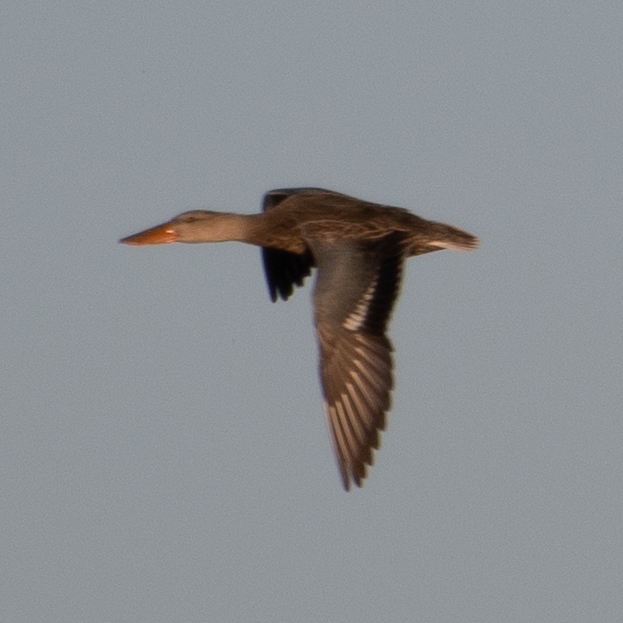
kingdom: Animalia
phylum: Chordata
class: Aves
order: Anseriformes
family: Anatidae
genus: Spatula
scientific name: Spatula clypeata
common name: Northern shoveler
